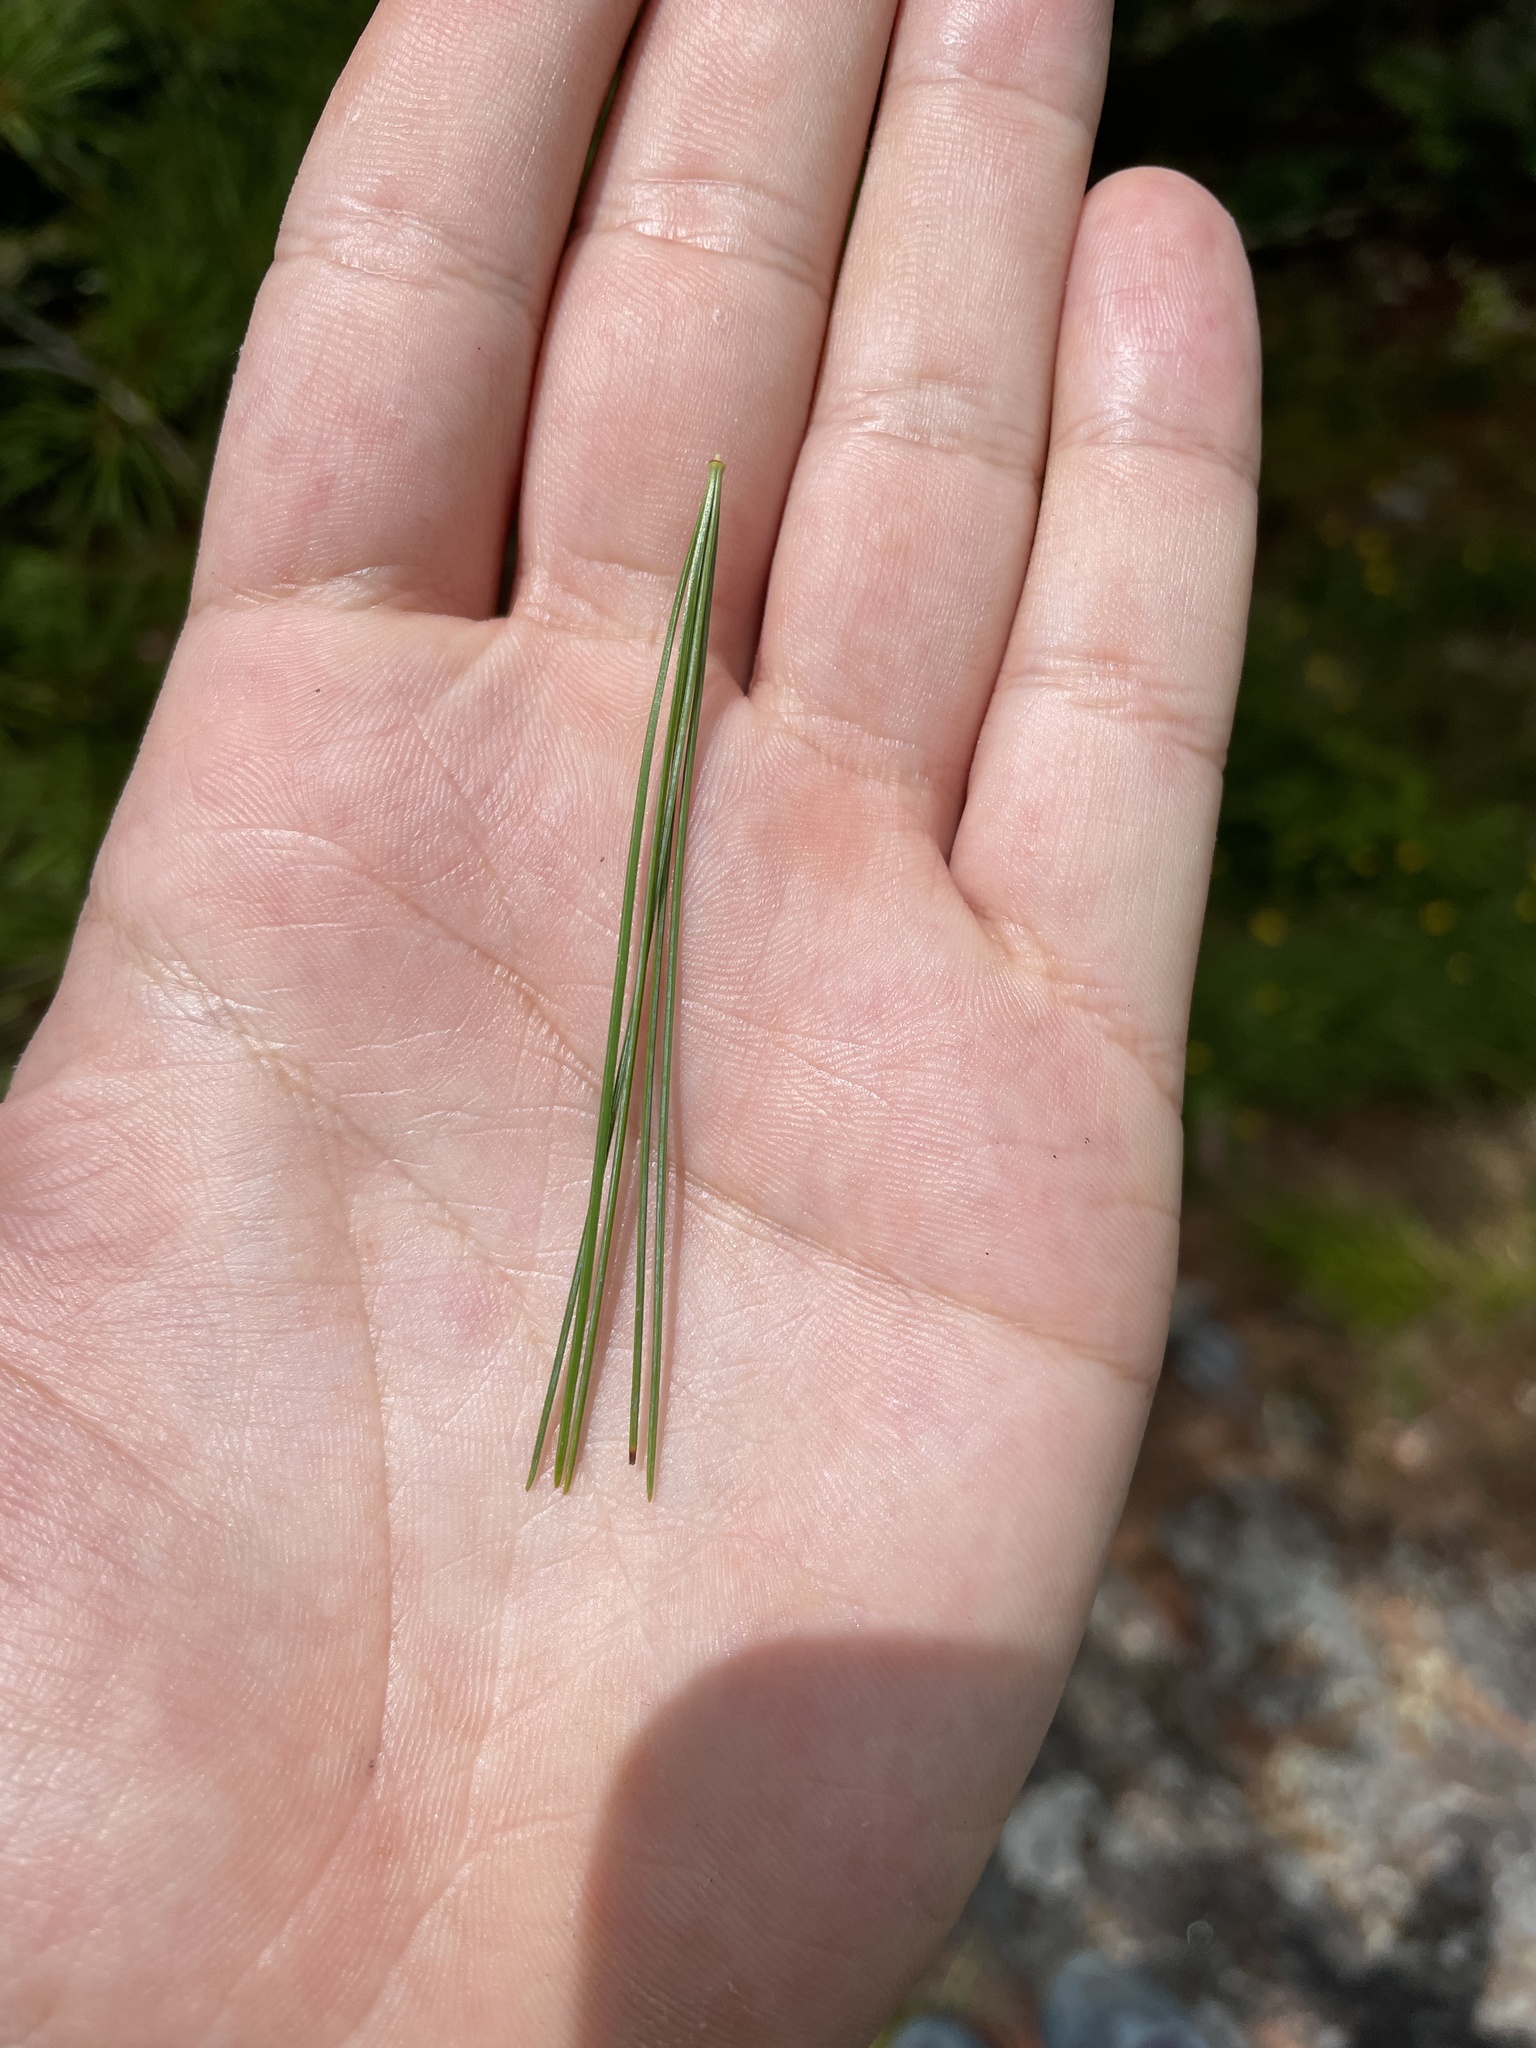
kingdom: Plantae
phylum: Tracheophyta
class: Pinopsida
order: Pinales
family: Pinaceae
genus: Pinus
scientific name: Pinus strobus
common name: Weymouth pine
